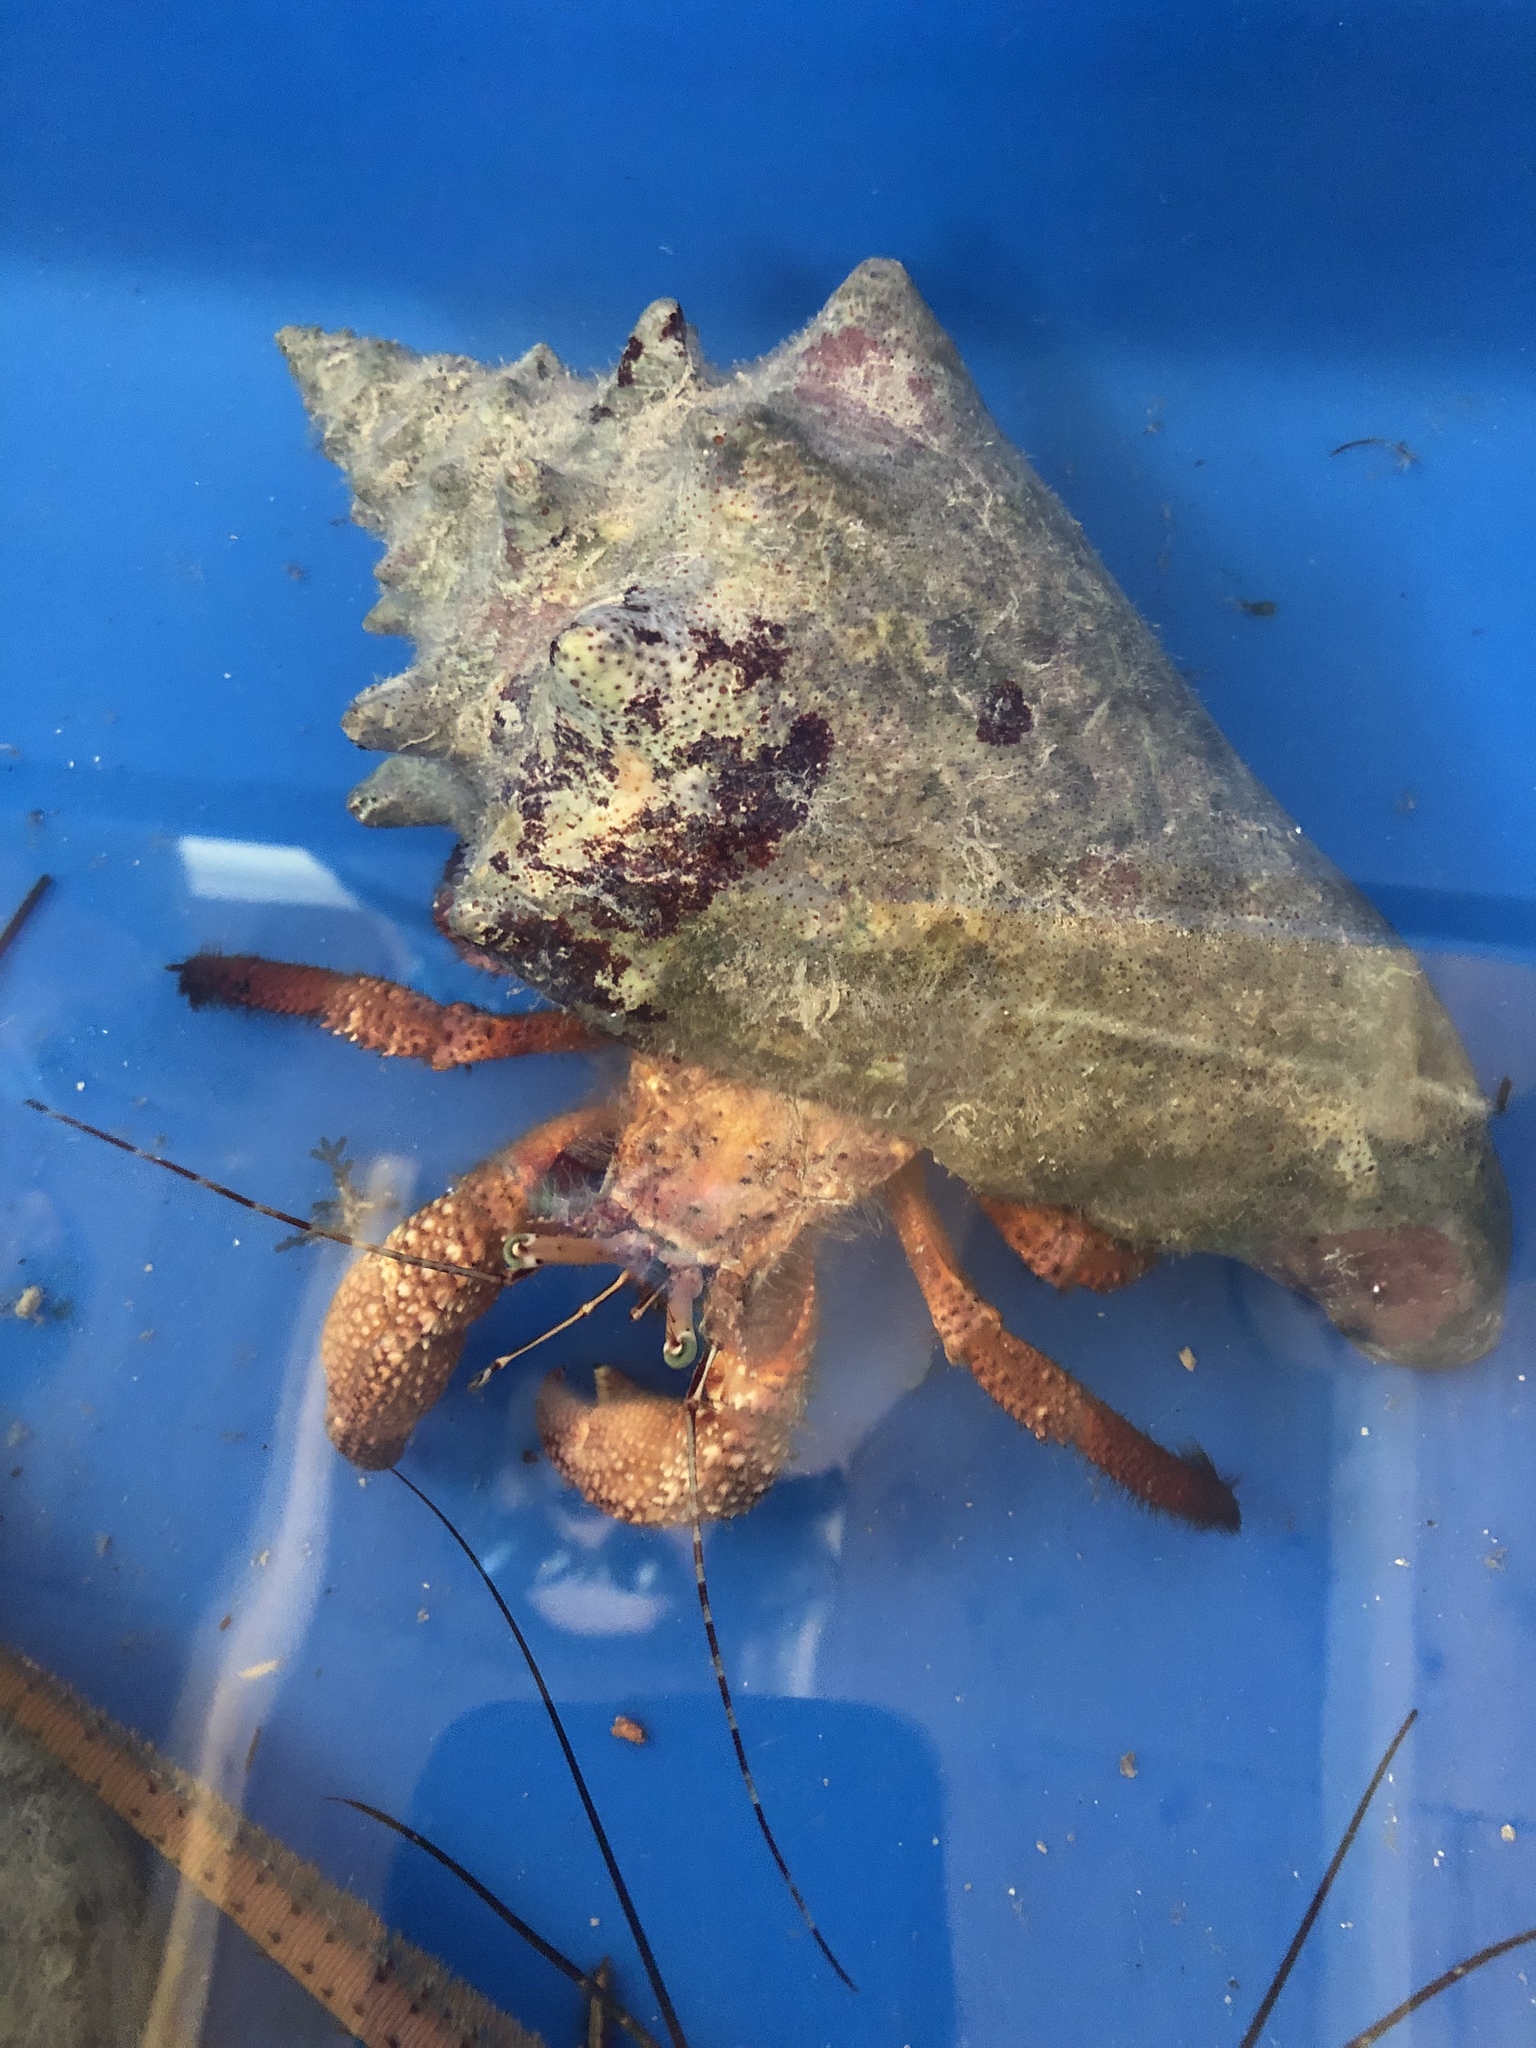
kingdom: Animalia
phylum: Arthropoda
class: Malacostraca
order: Decapoda
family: Diogenidae
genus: Petrochirus
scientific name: Petrochirus diogenes
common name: Giant hermit crab
